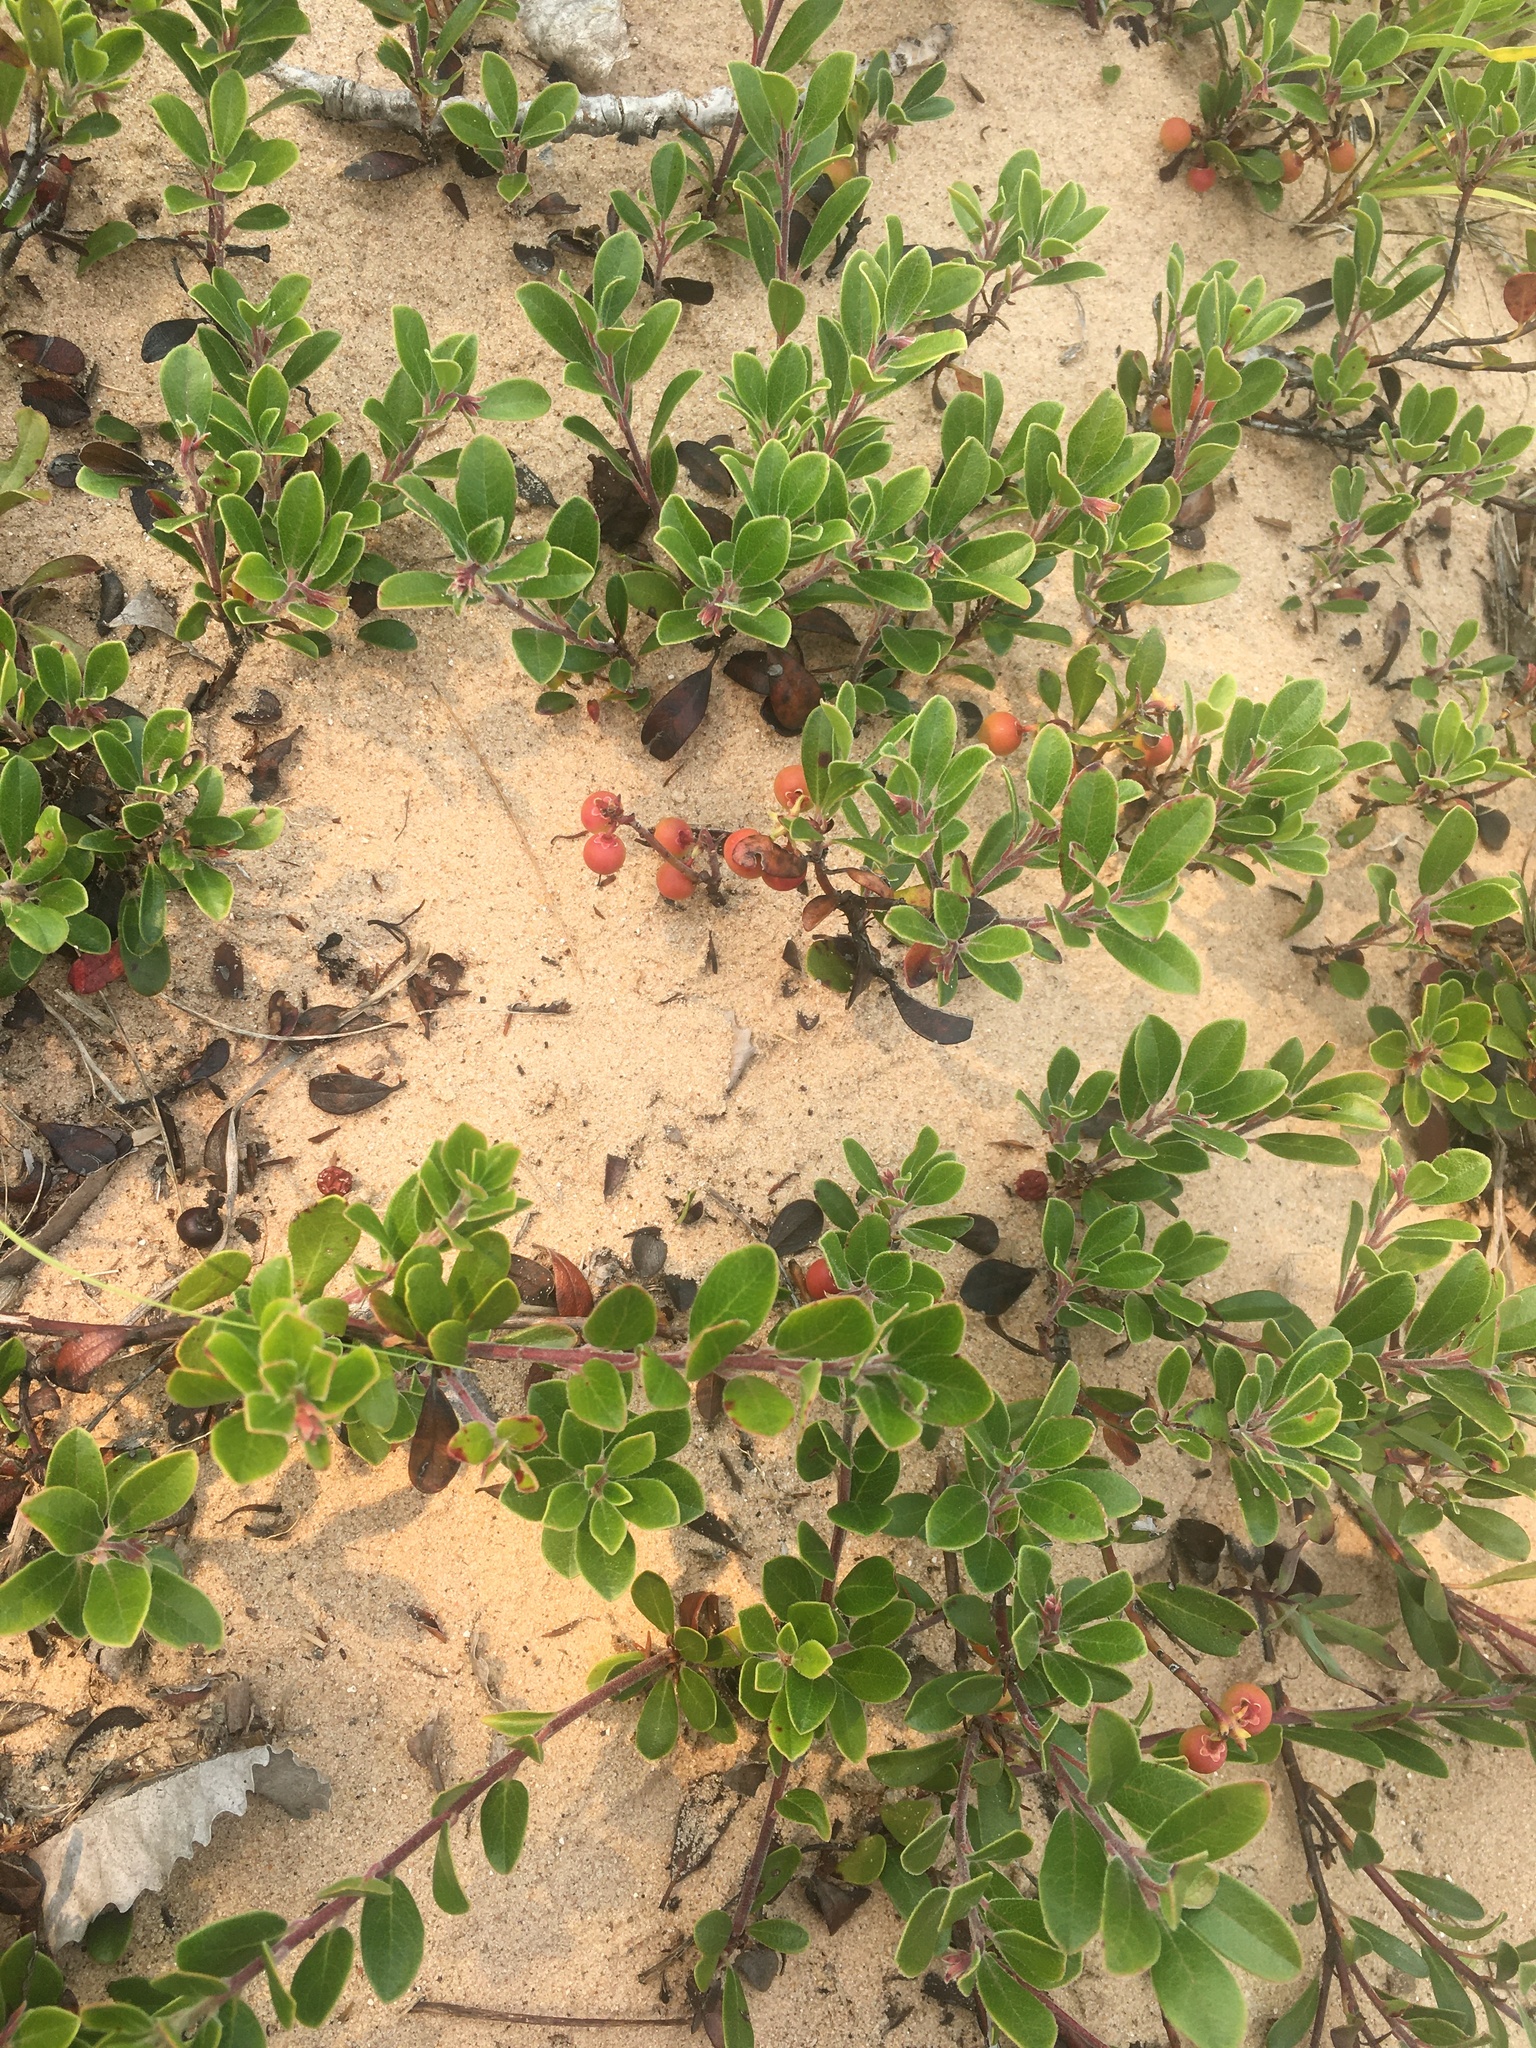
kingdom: Plantae
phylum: Tracheophyta
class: Magnoliopsida
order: Ericales
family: Ericaceae
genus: Arctostaphylos
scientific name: Arctostaphylos uva-ursi
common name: Bearberry
